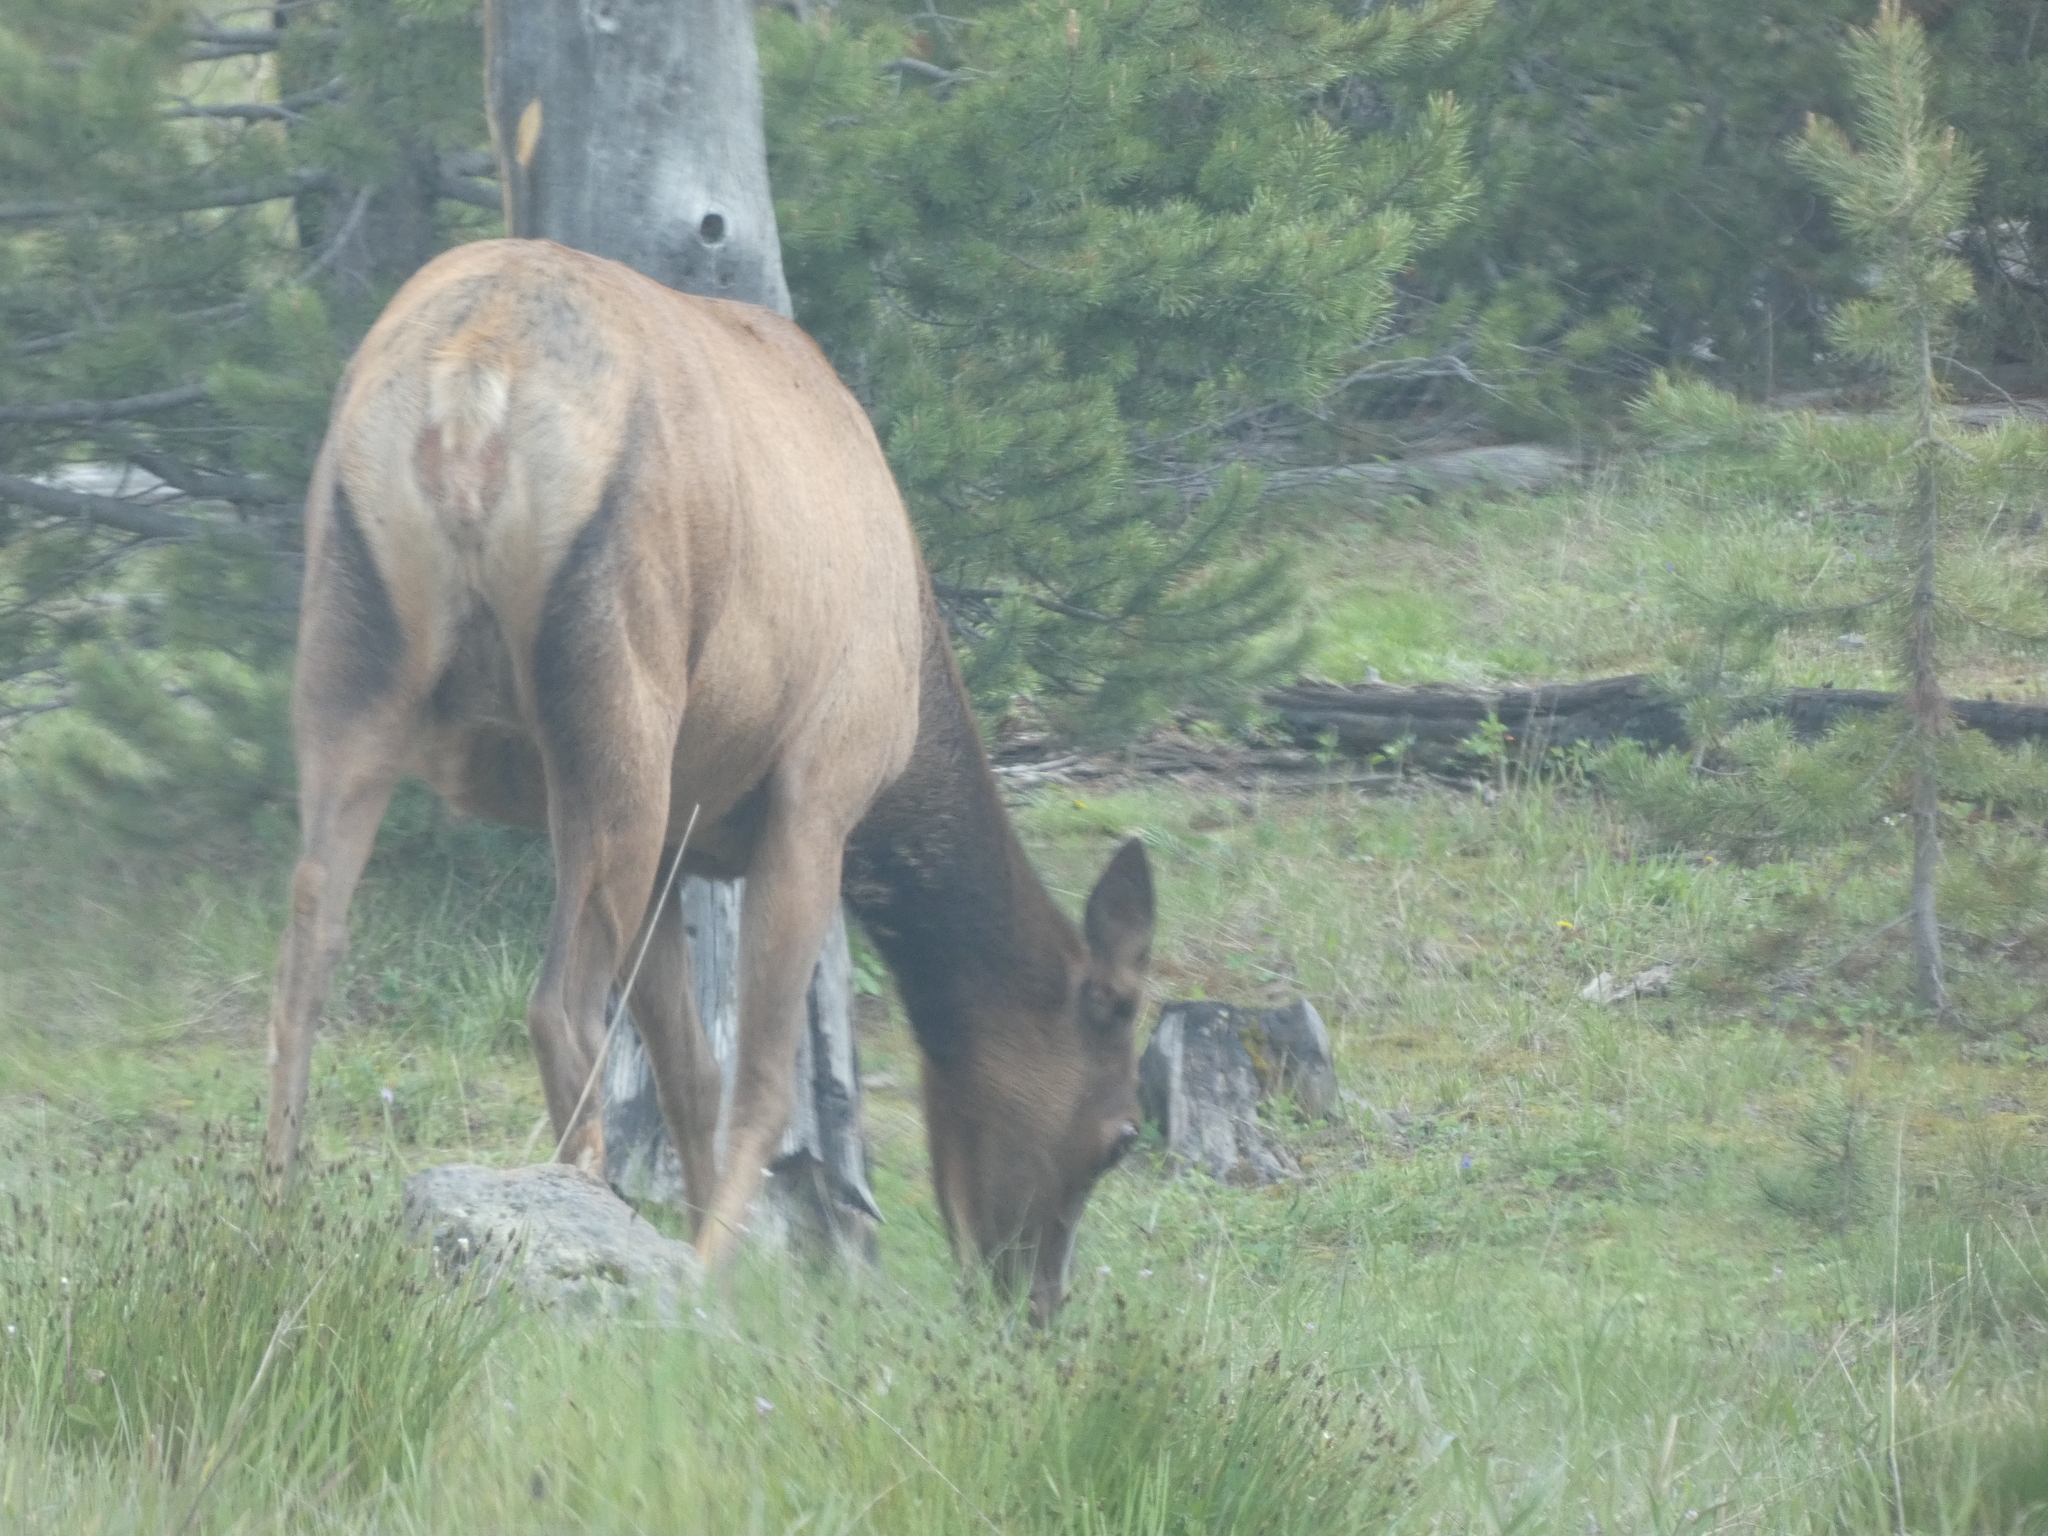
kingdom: Animalia
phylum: Chordata
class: Mammalia
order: Artiodactyla
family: Cervidae
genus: Cervus
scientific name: Cervus elaphus
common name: Red deer
